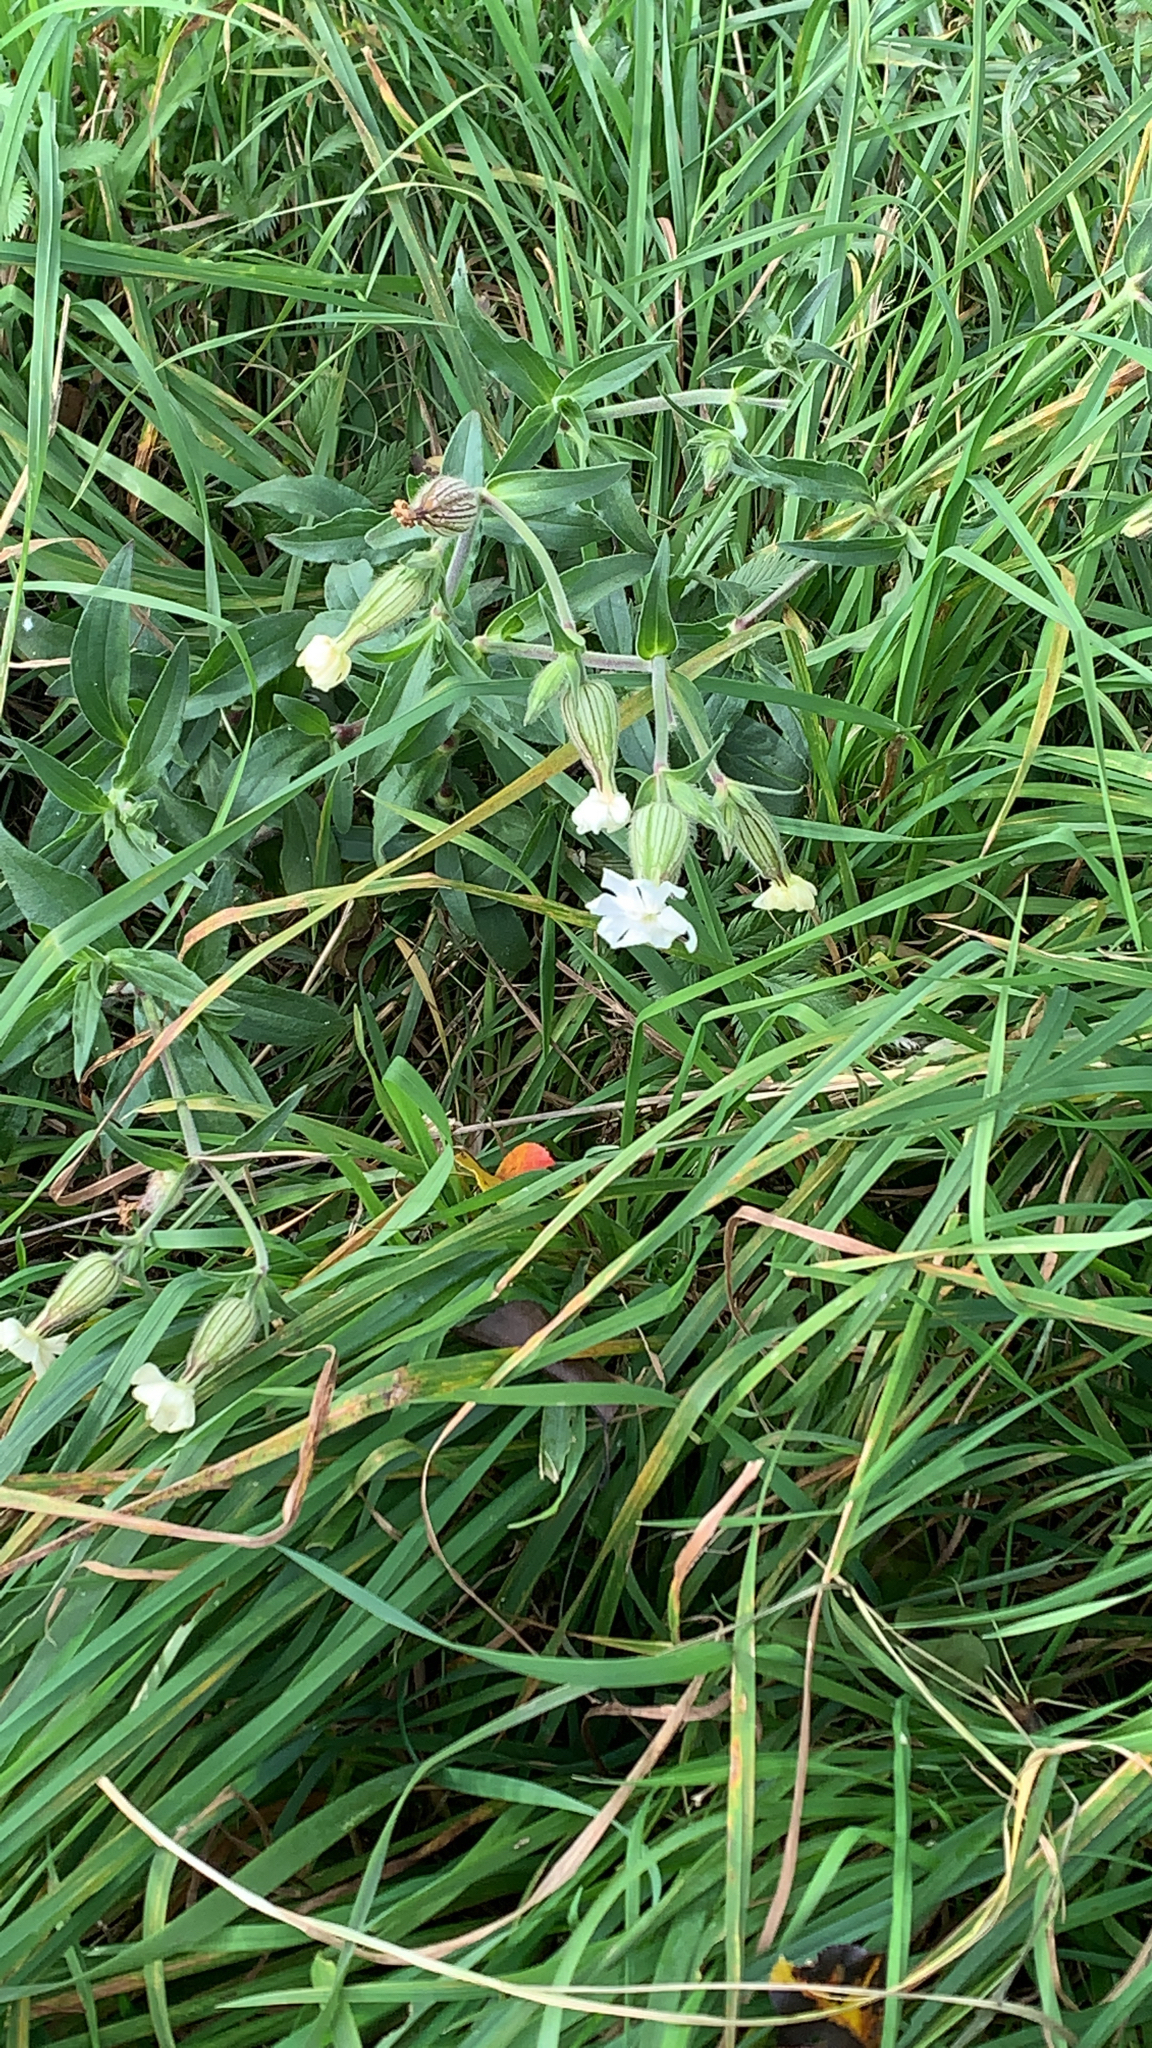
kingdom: Plantae
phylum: Tracheophyta
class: Magnoliopsida
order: Caryophyllales
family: Caryophyllaceae
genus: Silene
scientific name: Silene latifolia
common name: White campion
